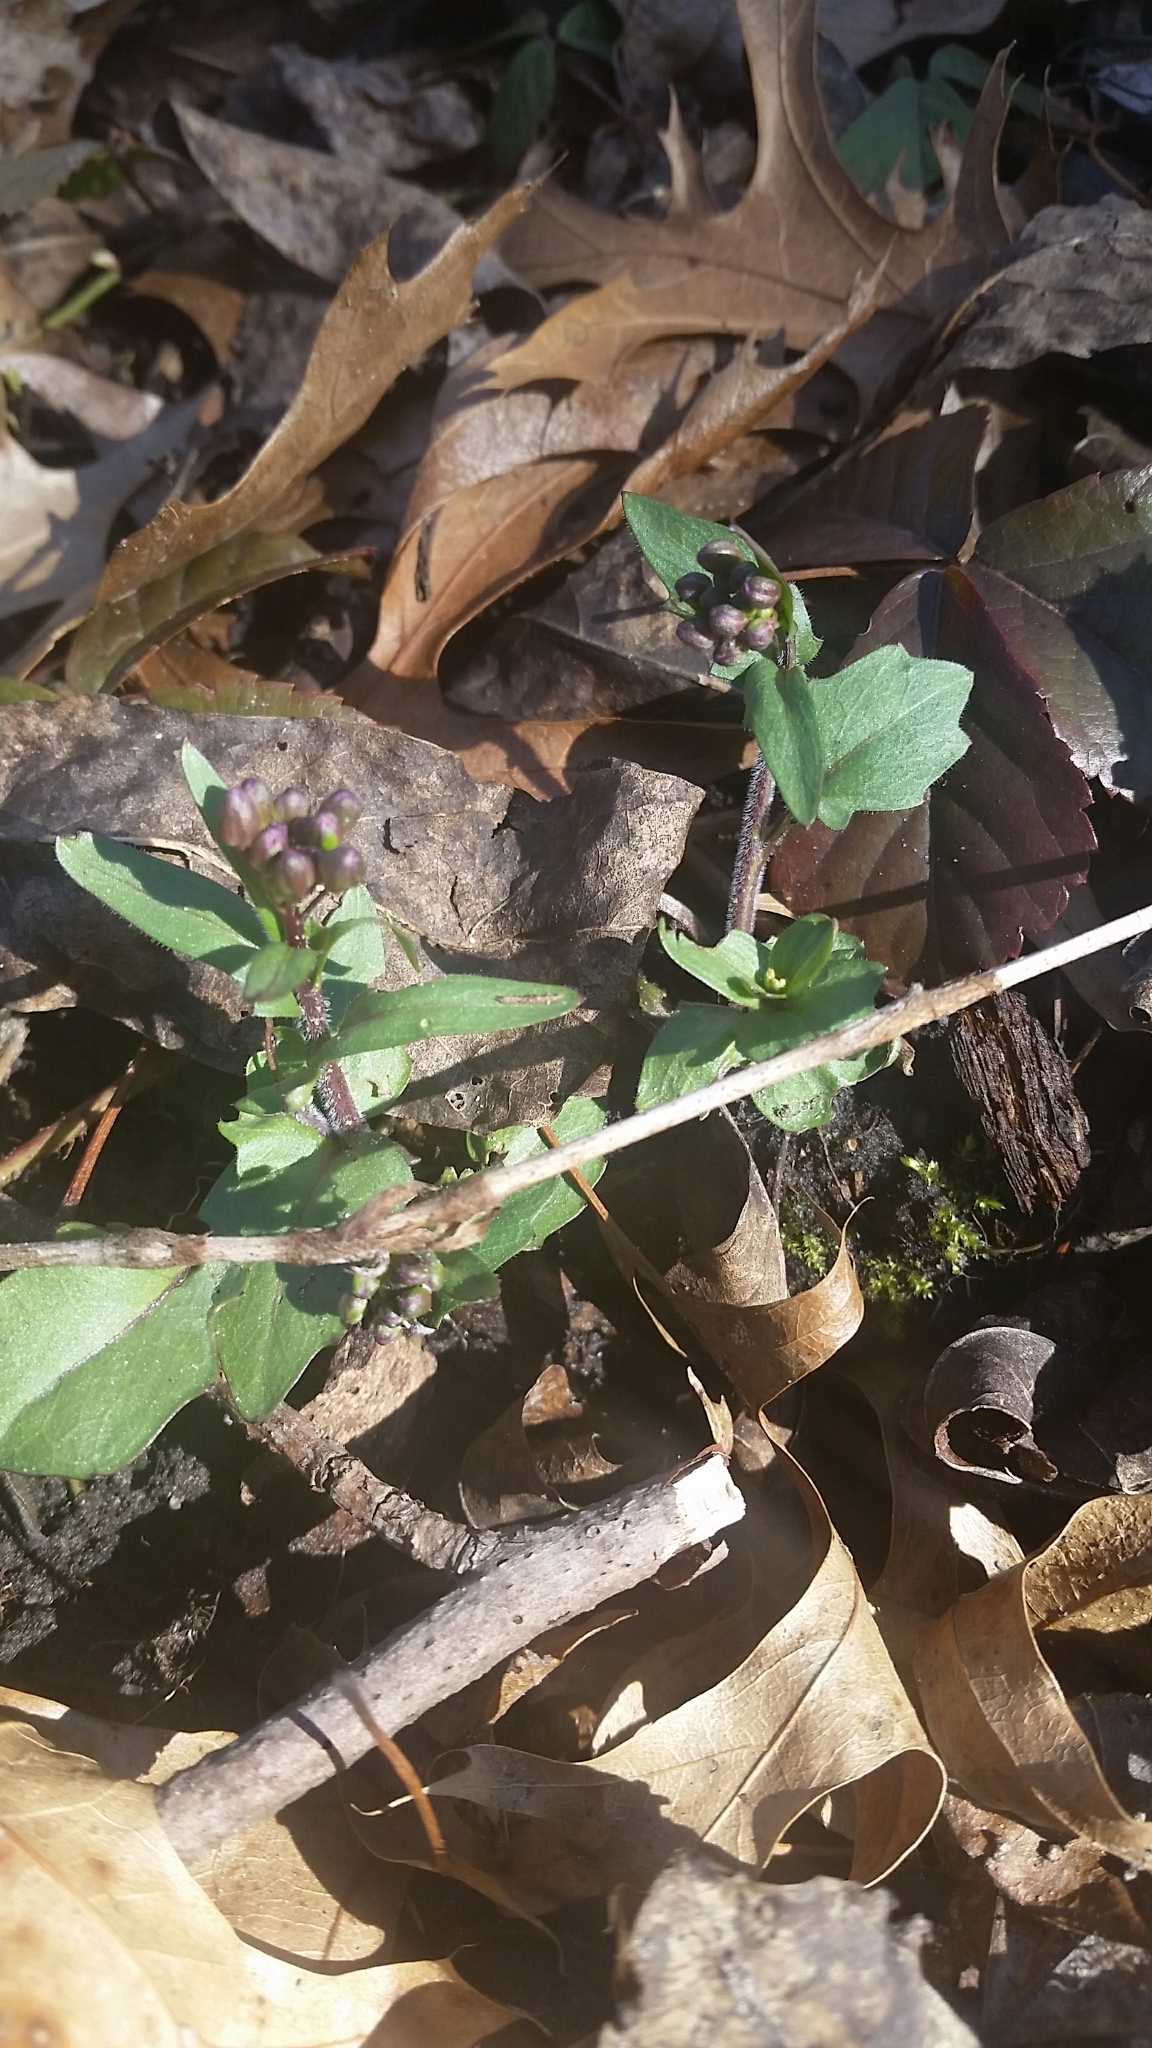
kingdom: Plantae
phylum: Tracheophyta
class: Magnoliopsida
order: Brassicales
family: Brassicaceae
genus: Cardamine
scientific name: Cardamine douglassii
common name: Purple cress
